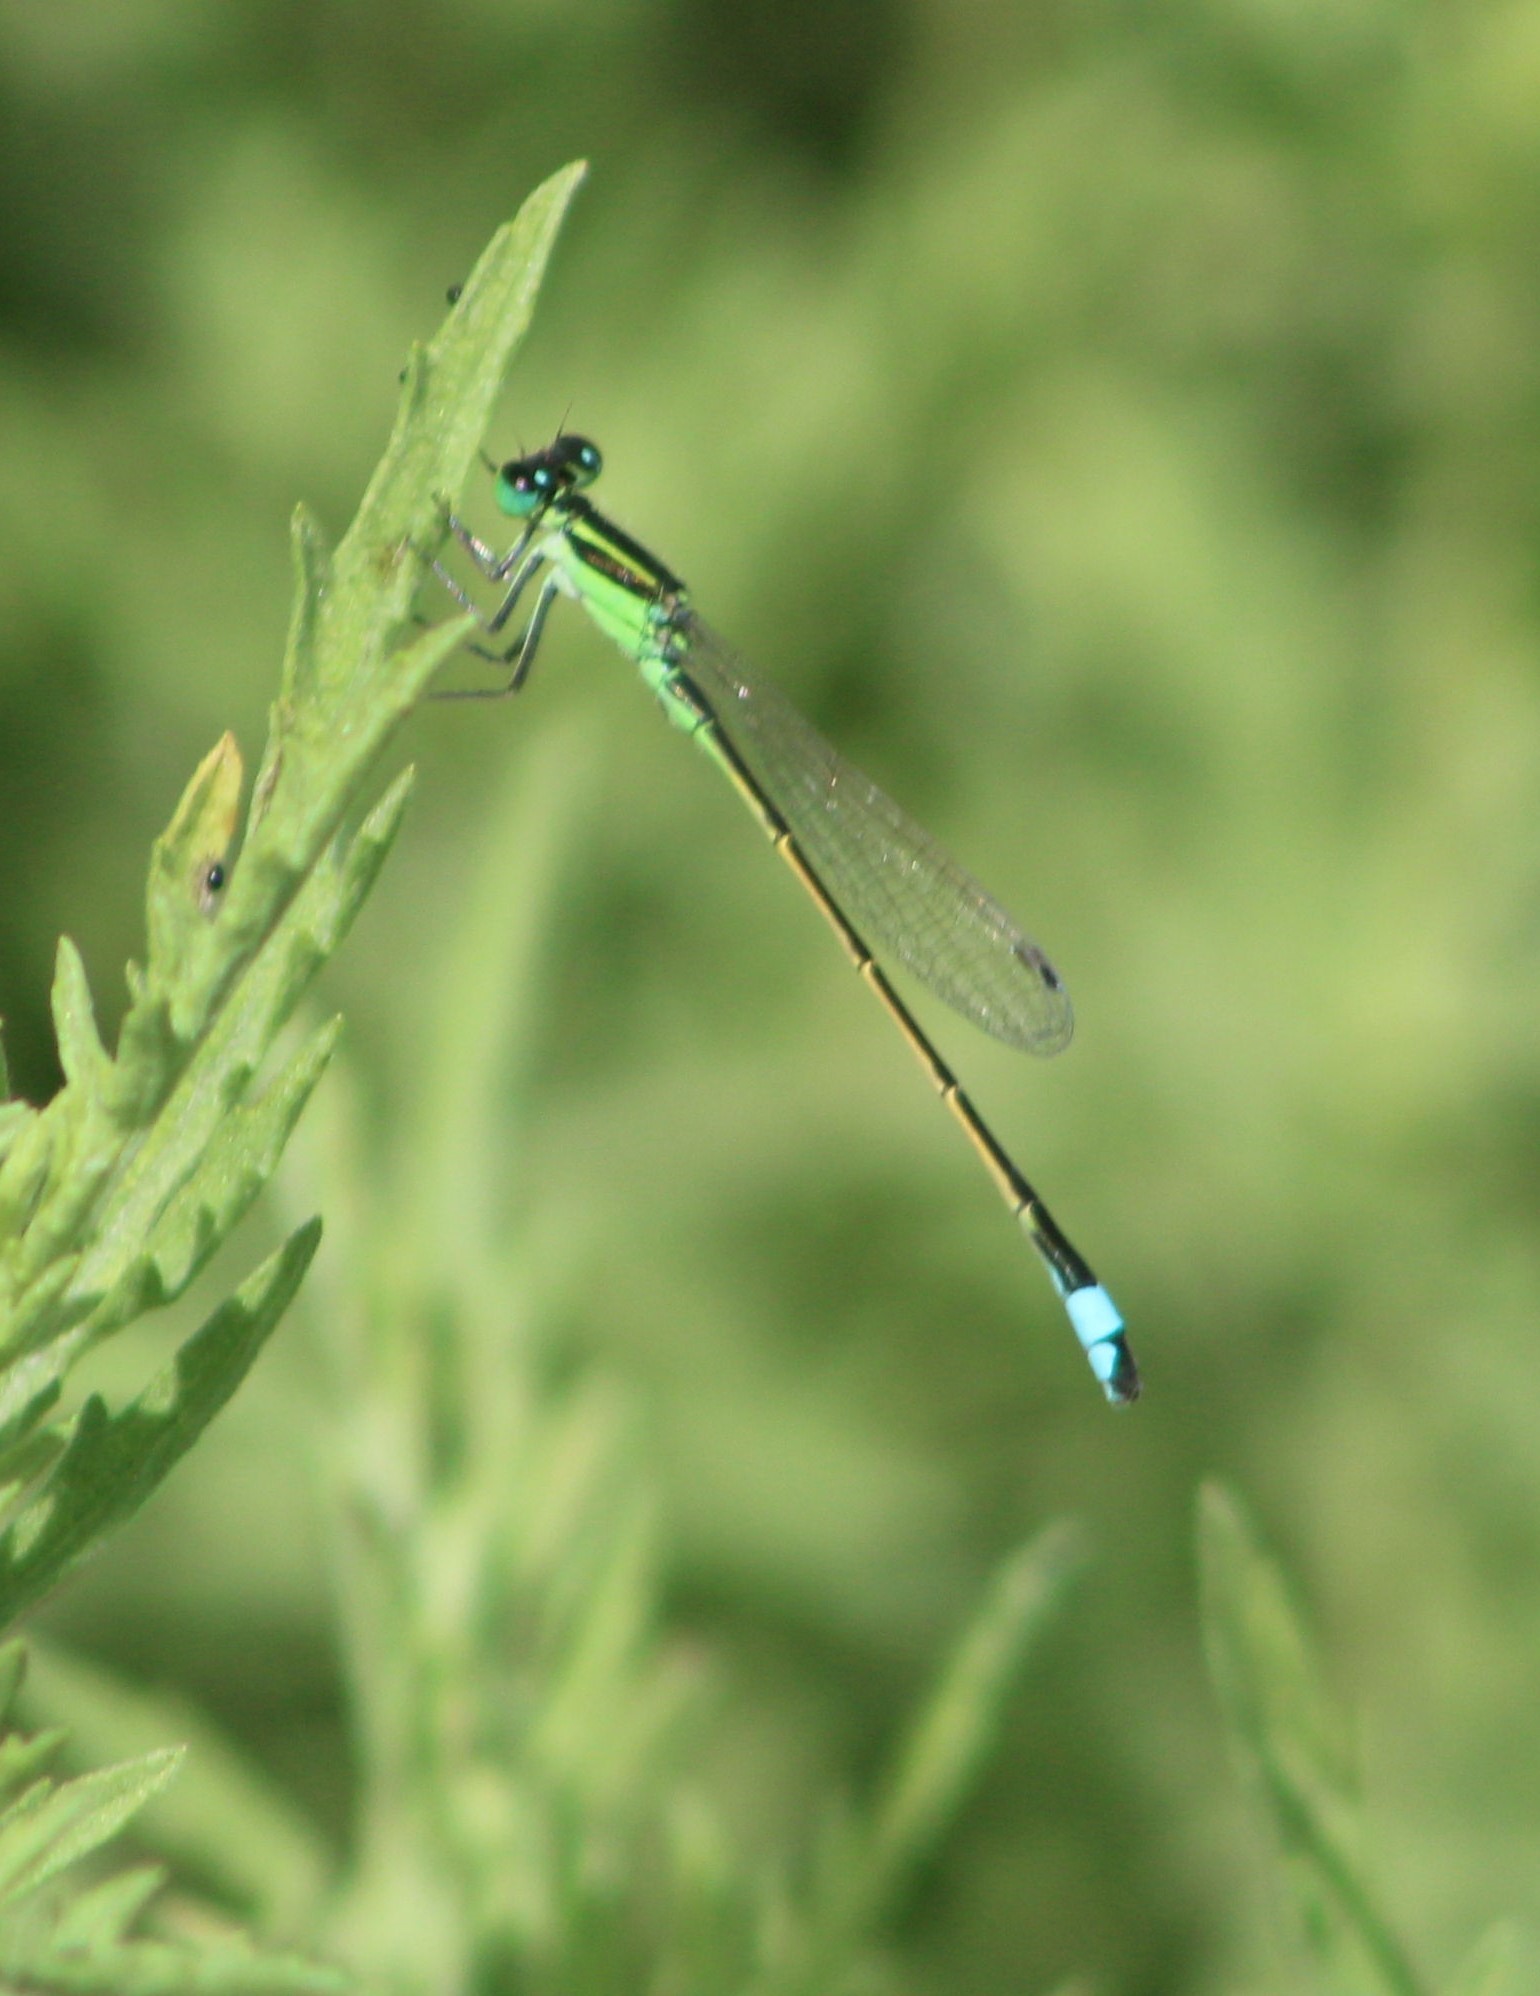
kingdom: Animalia
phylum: Arthropoda
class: Insecta
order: Odonata
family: Coenagrionidae
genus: Ischnura
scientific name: Ischnura ramburii
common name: Rambur's forktail
